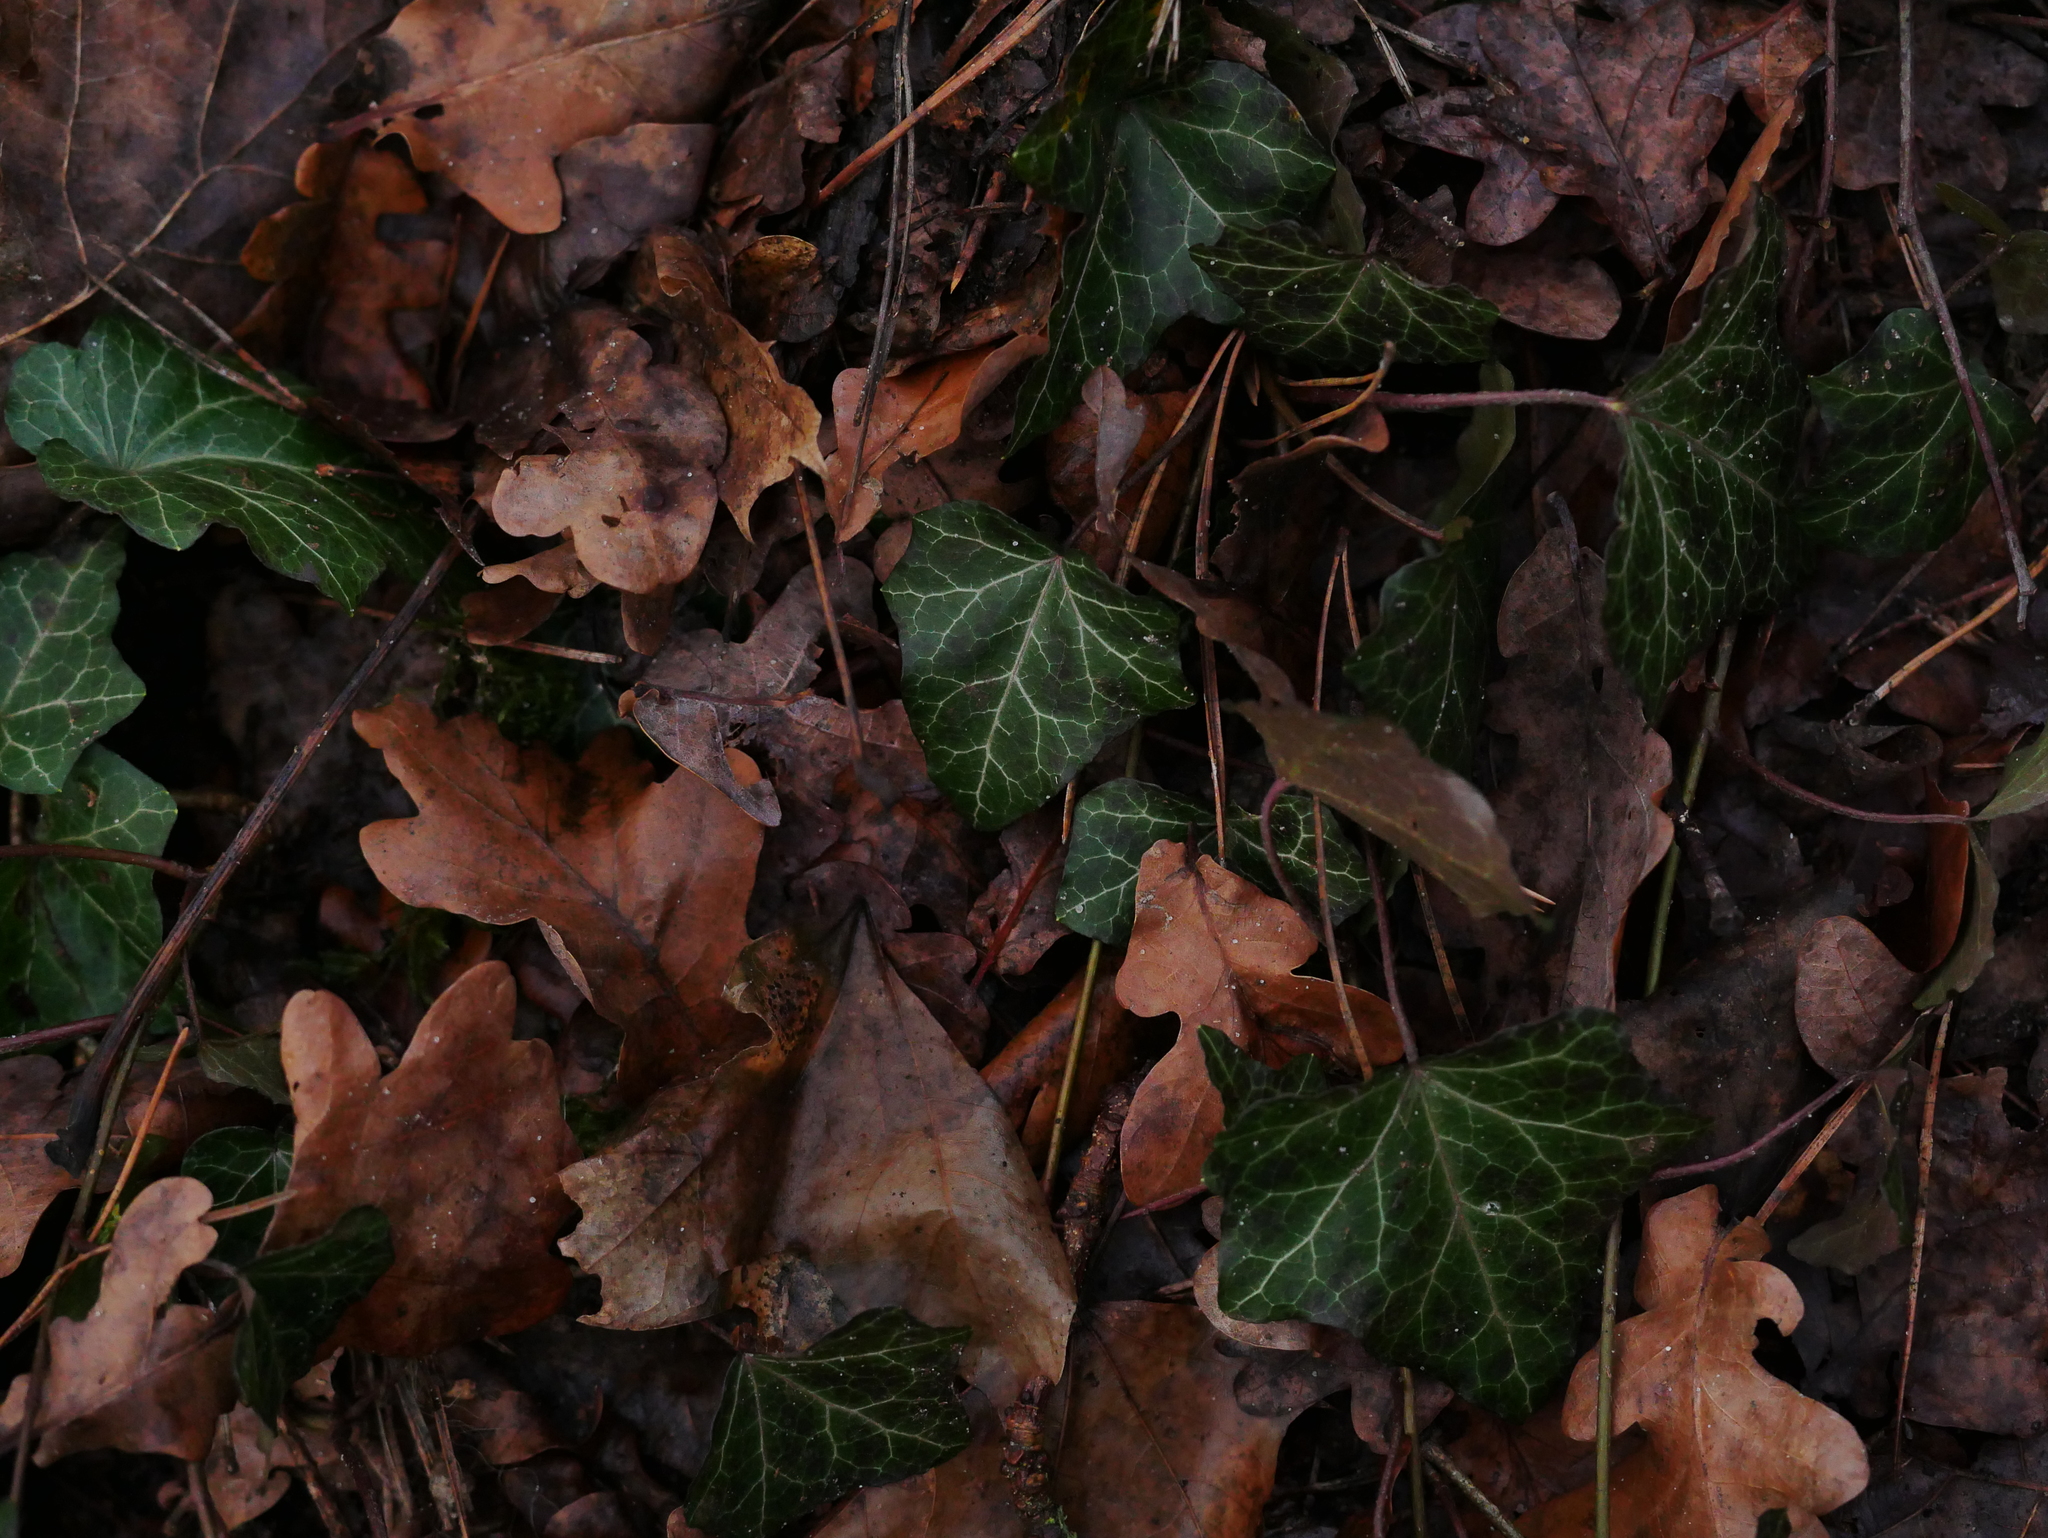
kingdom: Plantae
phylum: Tracheophyta
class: Magnoliopsida
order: Apiales
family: Araliaceae
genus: Hedera
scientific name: Hedera helix
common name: Ivy
